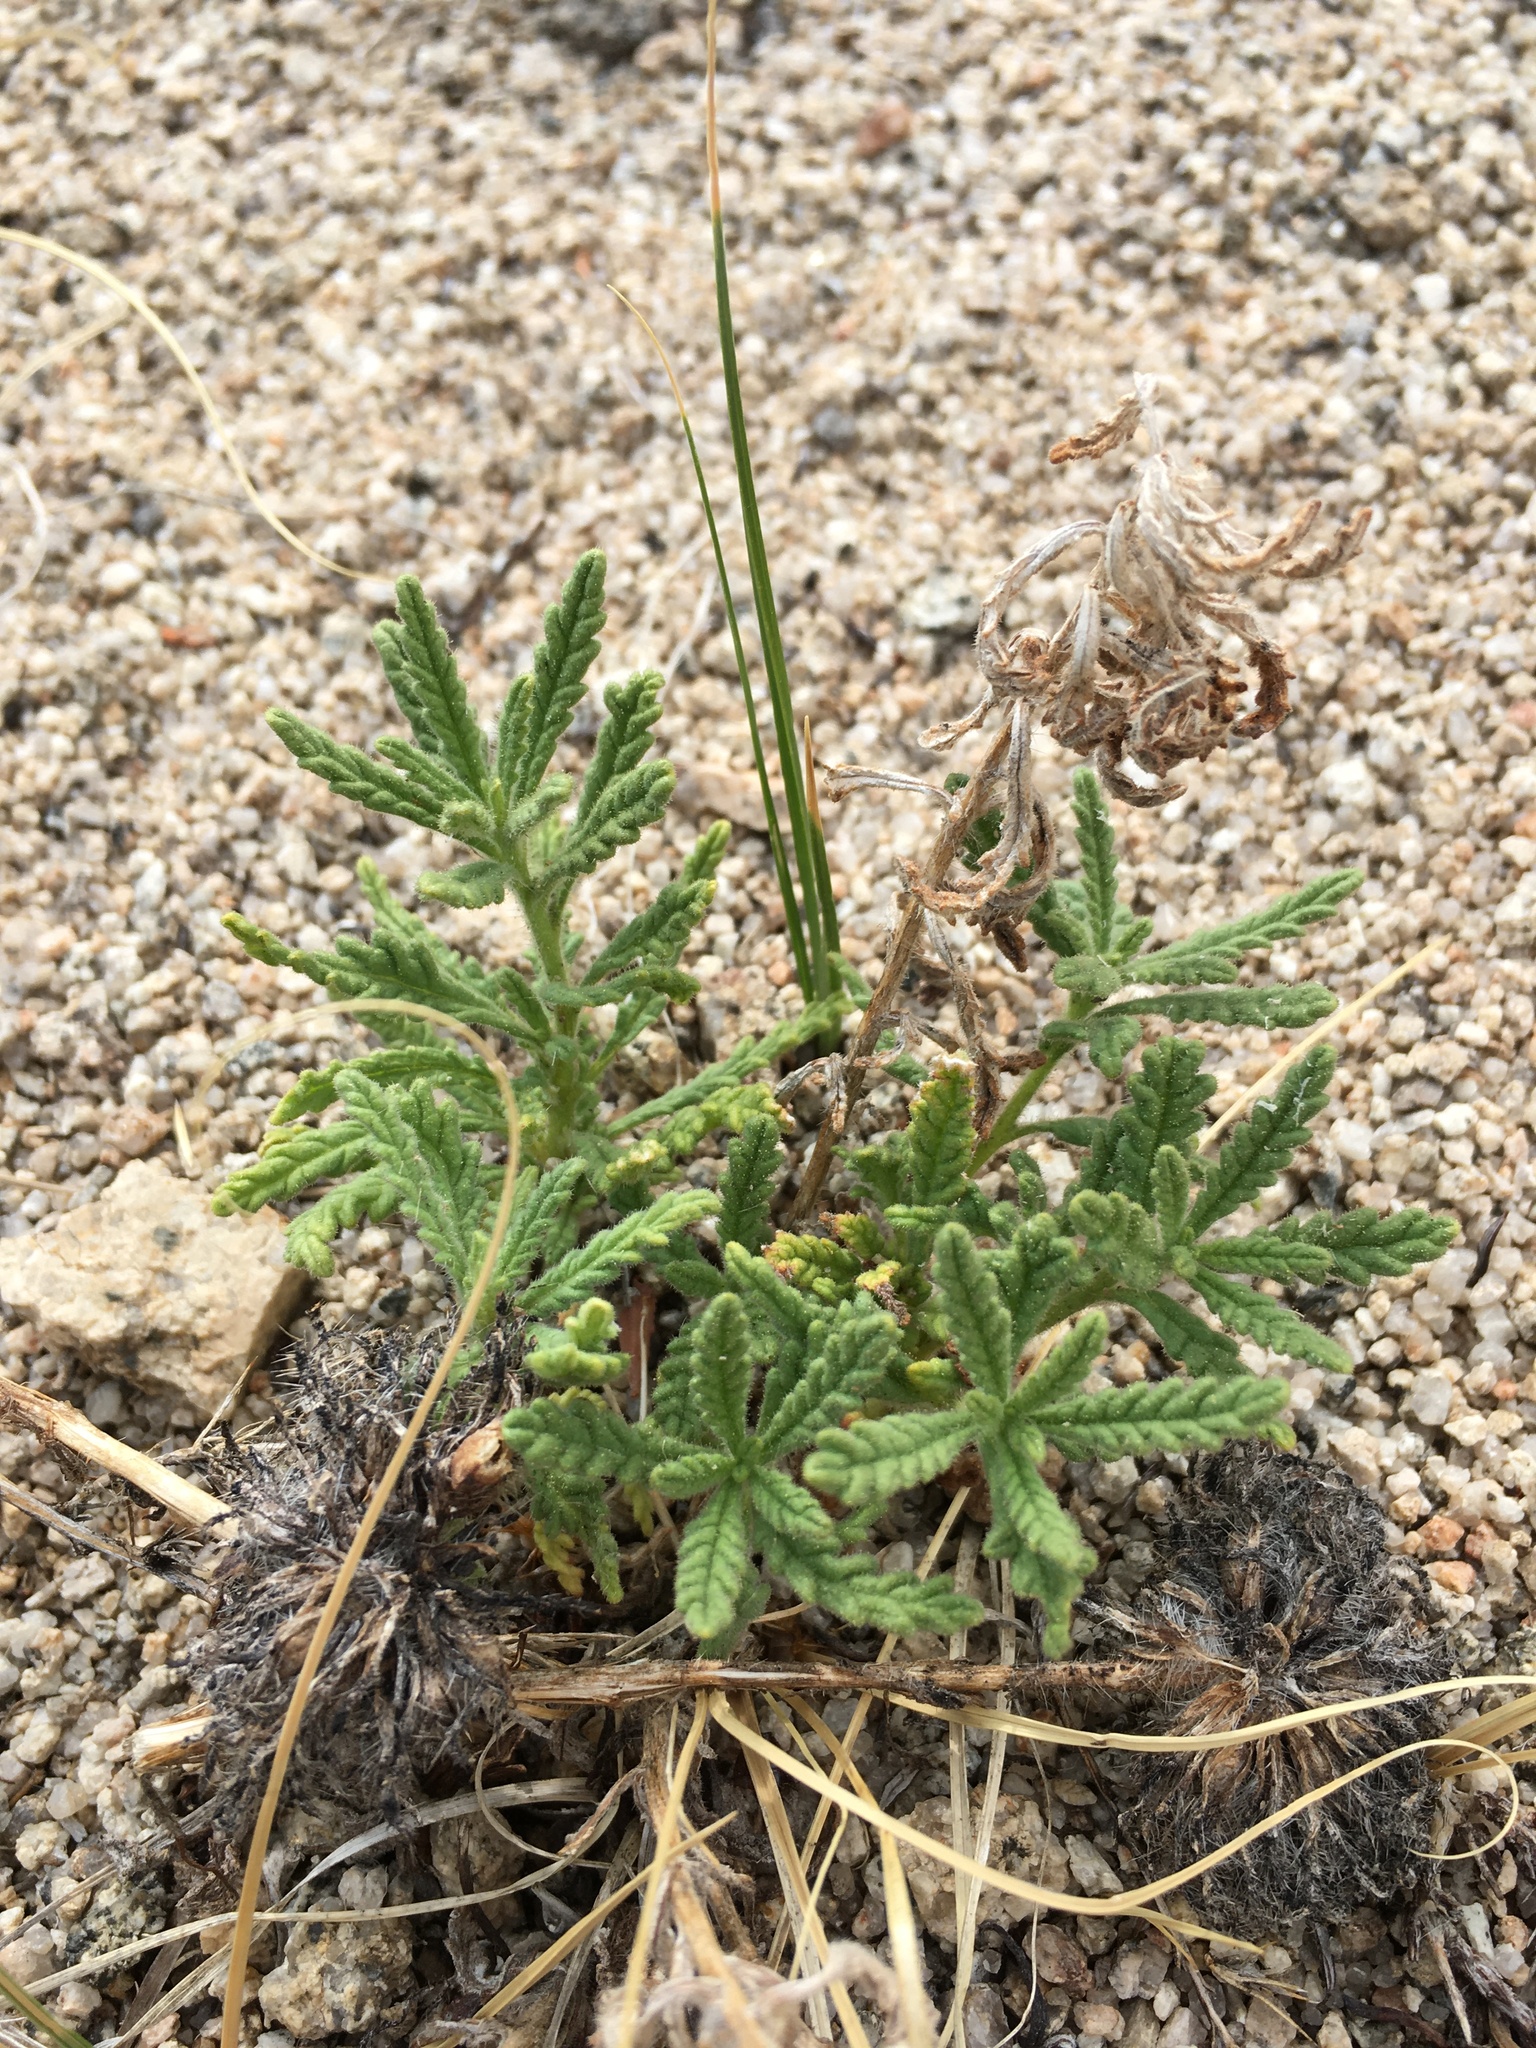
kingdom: Plantae
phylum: Tracheophyta
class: Magnoliopsida
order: Boraginales
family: Namaceae
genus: Nama
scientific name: Nama rothrockii
